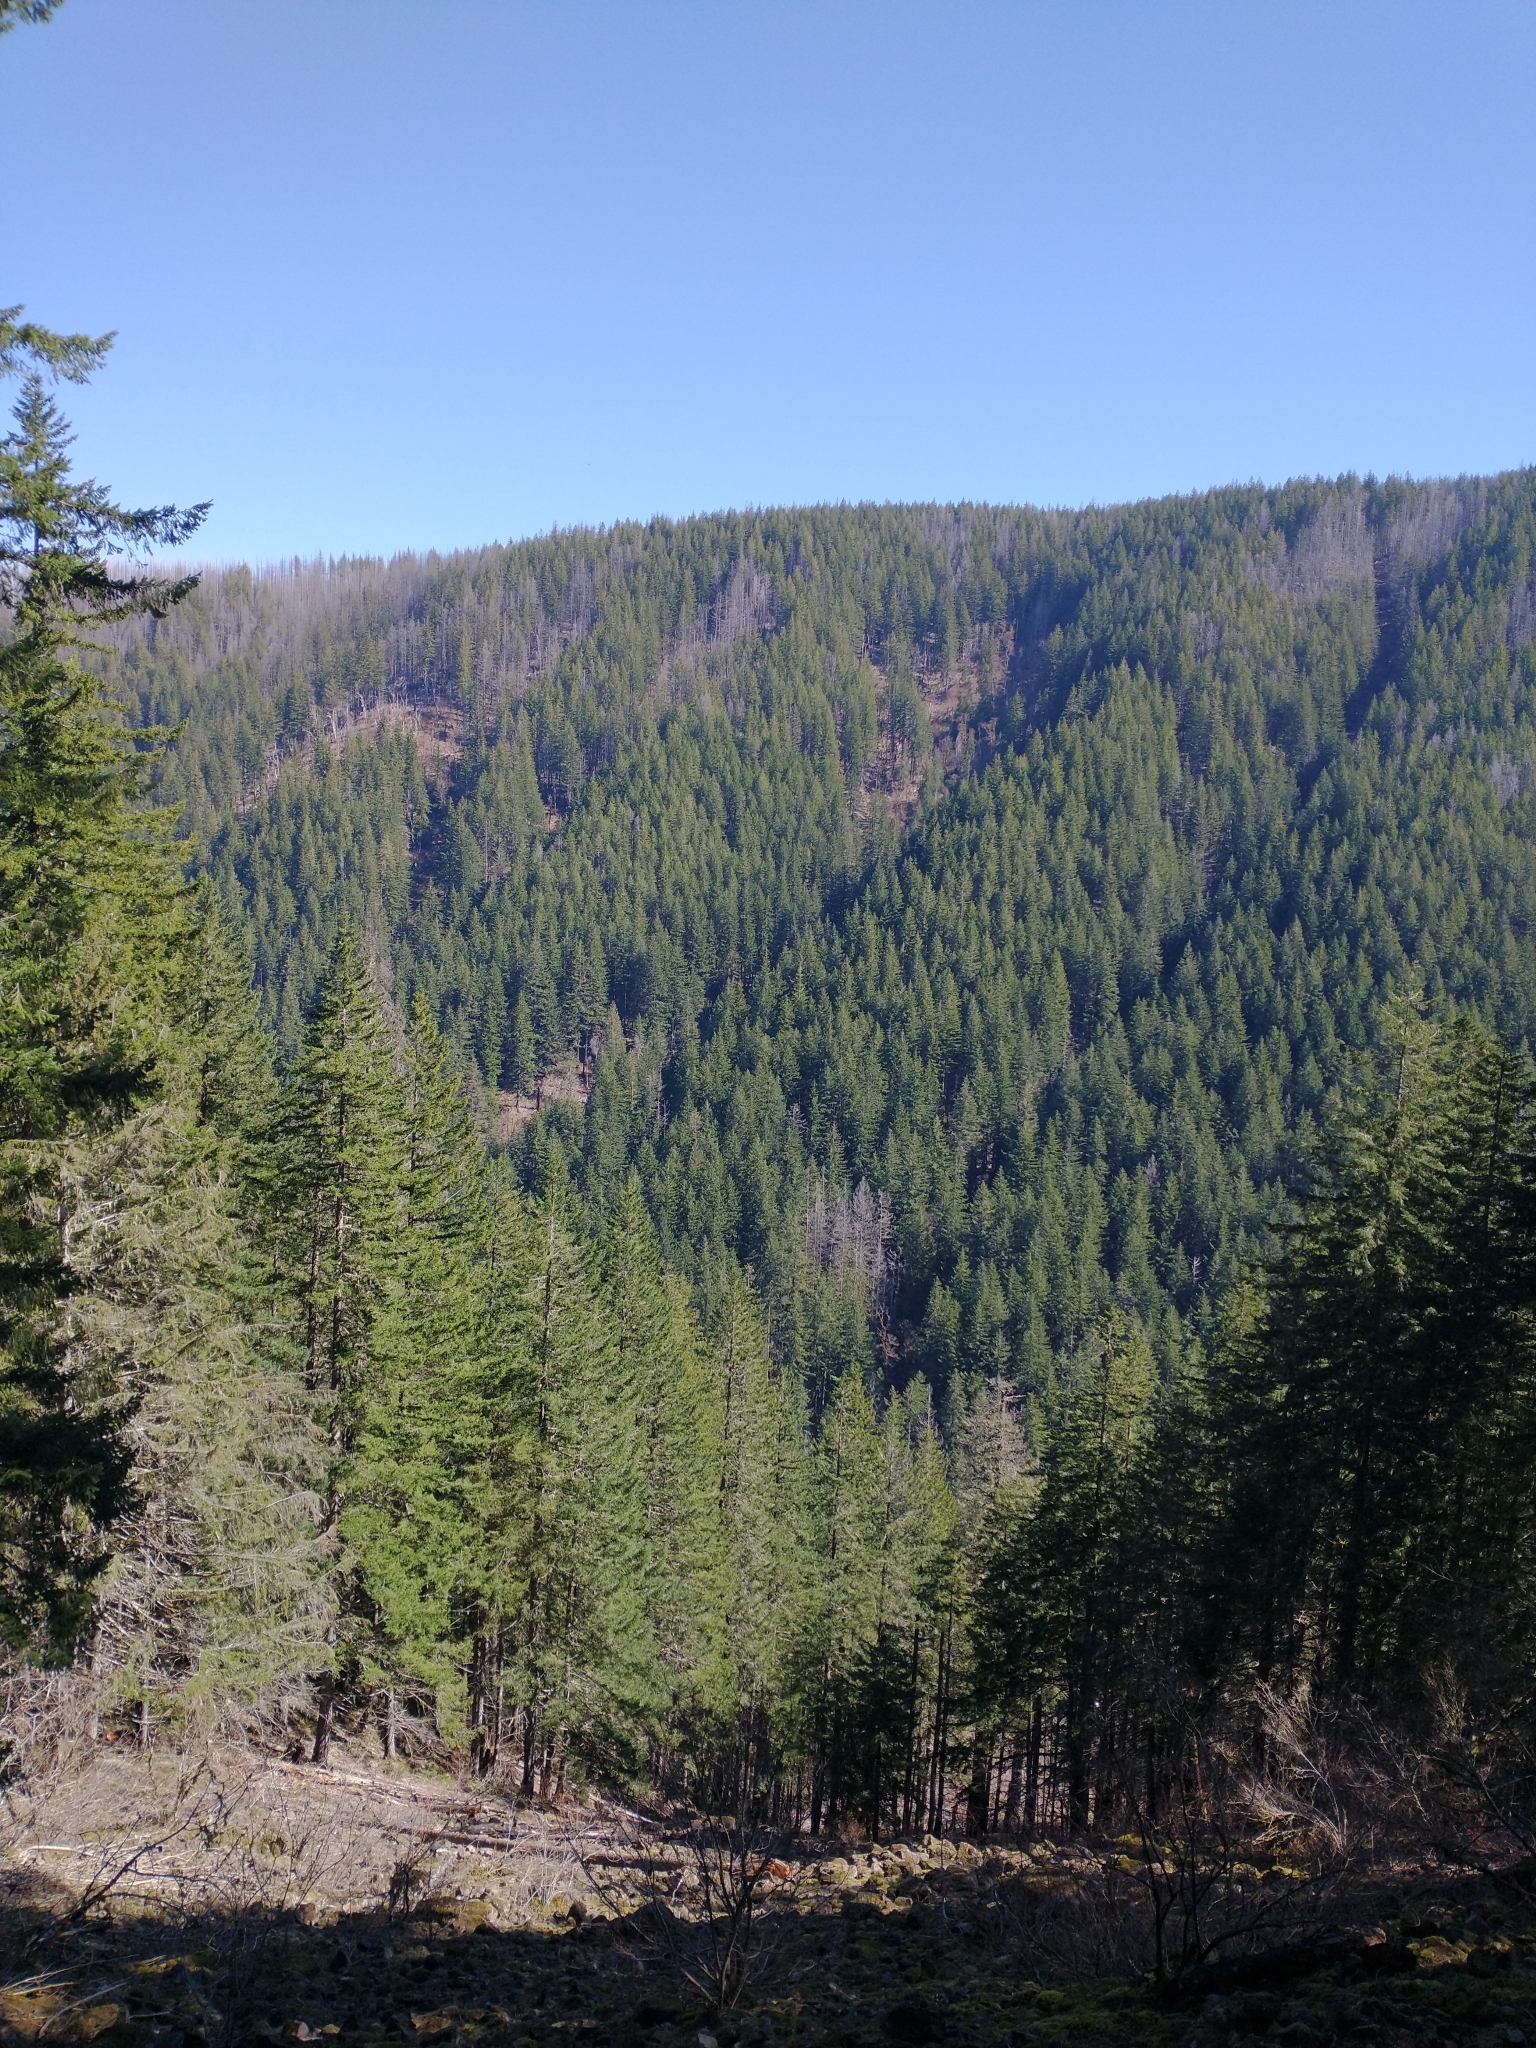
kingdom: Plantae
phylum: Tracheophyta
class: Pinopsida
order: Pinales
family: Pinaceae
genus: Pseudotsuga
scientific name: Pseudotsuga menziesii
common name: Douglas fir
